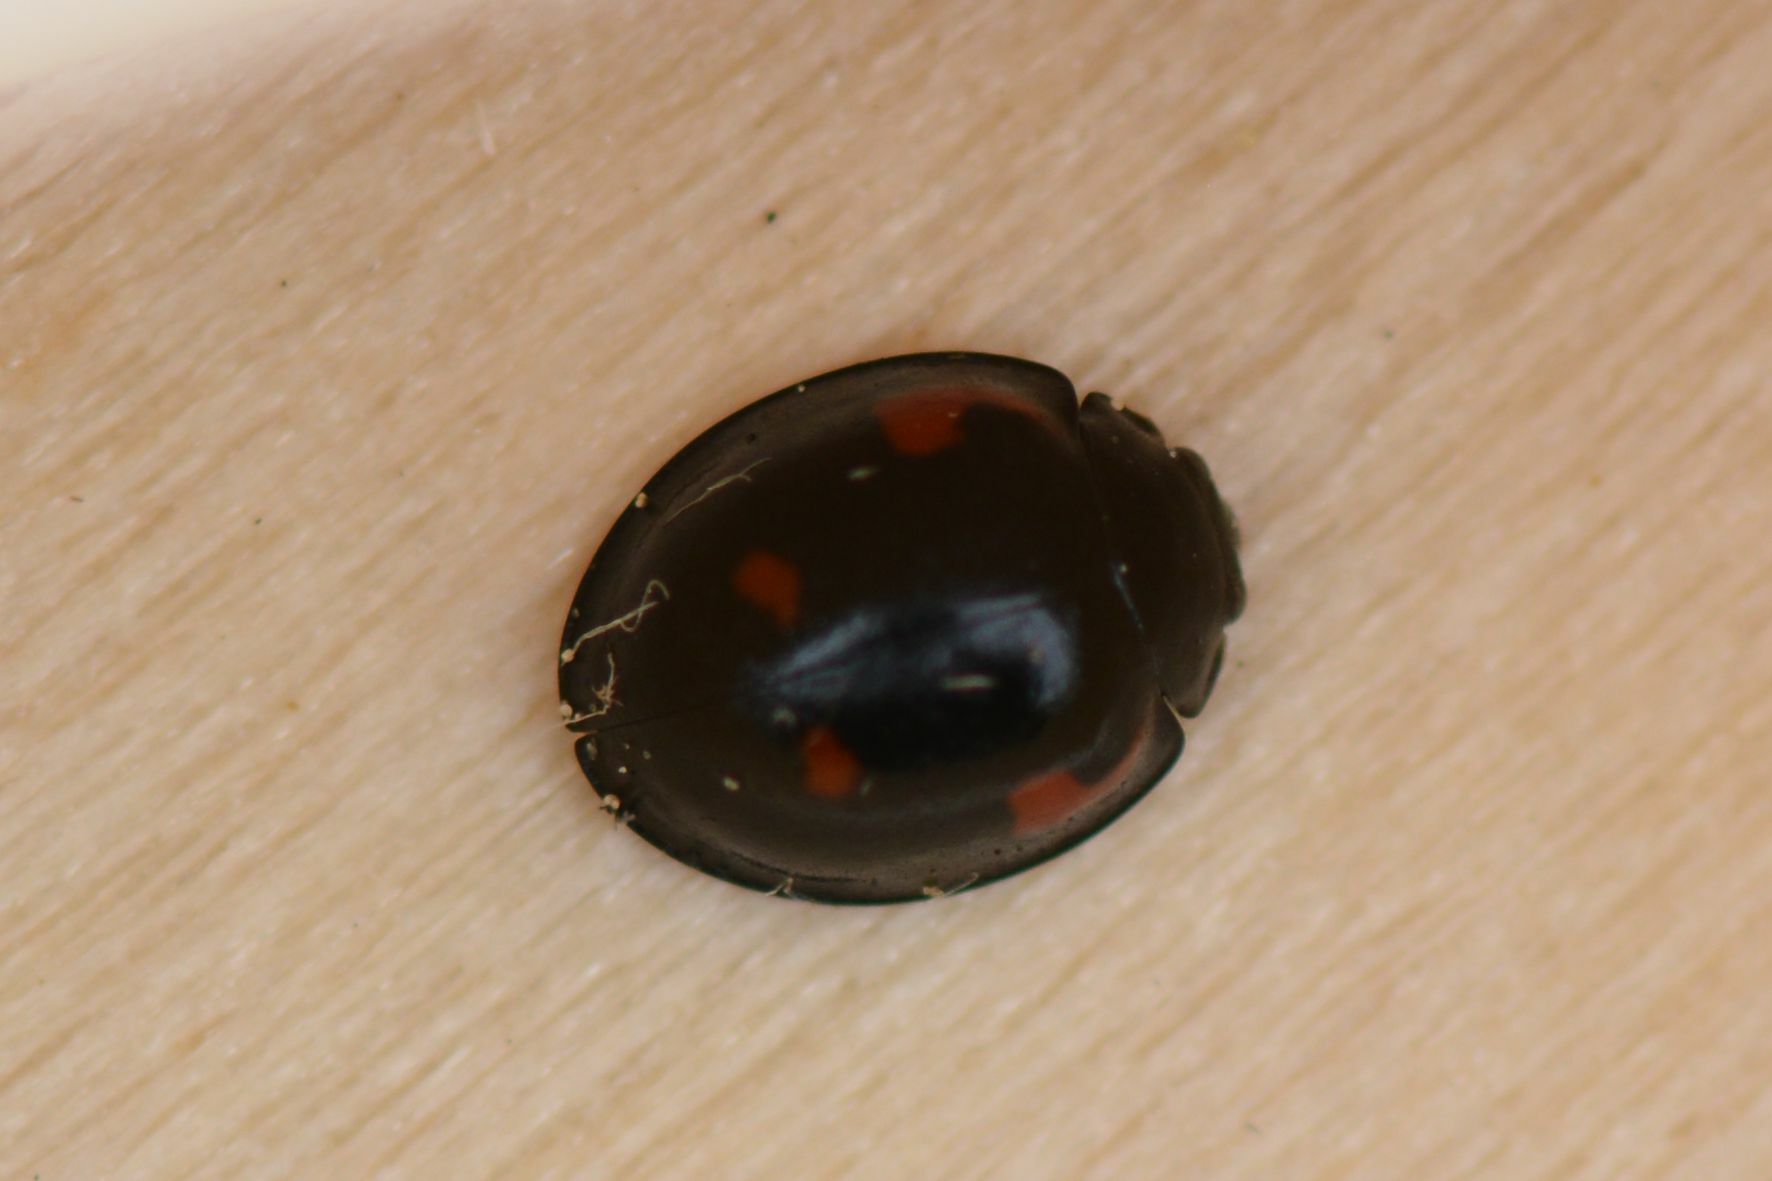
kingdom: Animalia
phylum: Arthropoda
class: Insecta
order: Coleoptera
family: Coccinellidae
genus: Brumus
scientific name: Brumus quadripustulatus
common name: Ladybird beetle
